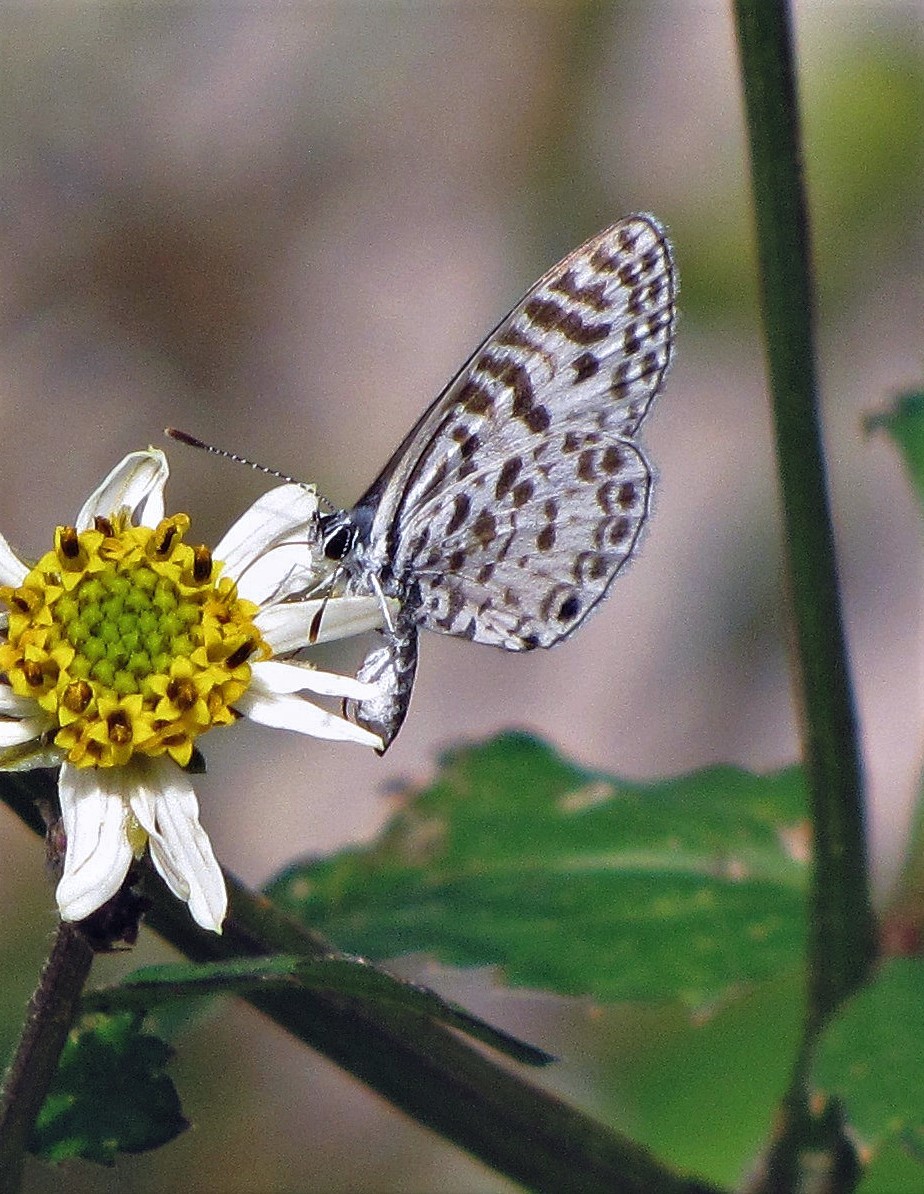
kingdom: Animalia
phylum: Arthropoda
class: Insecta
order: Lepidoptera
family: Lycaenidae
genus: Leptotes
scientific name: Leptotes cassius
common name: Cassius blue
